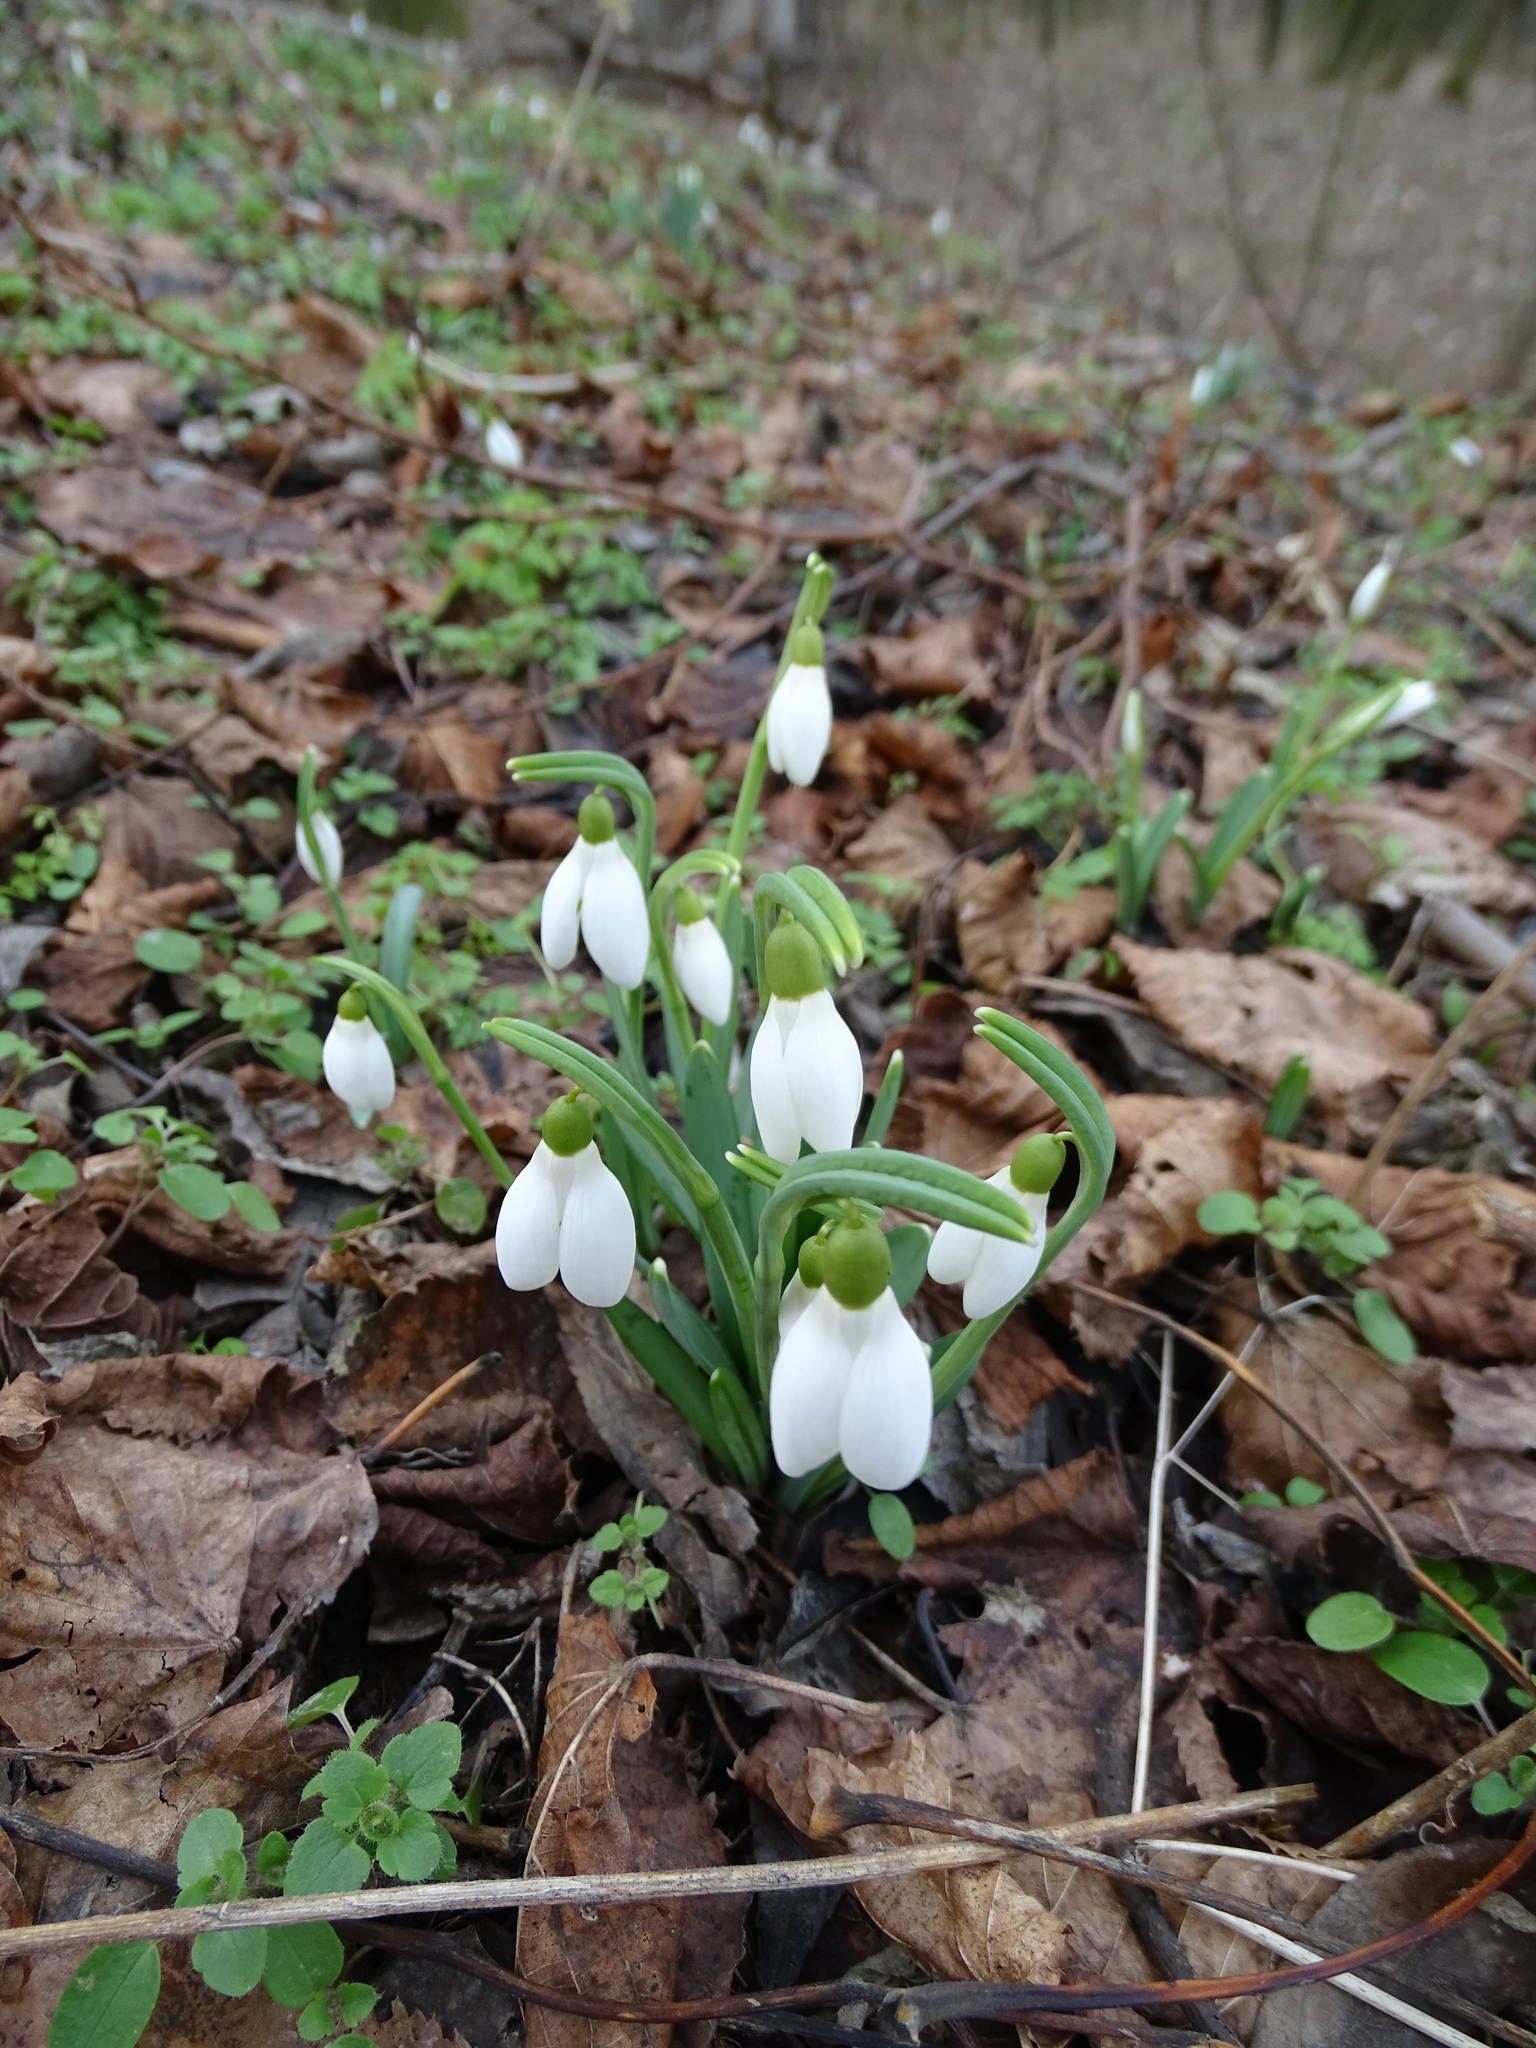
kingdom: Plantae
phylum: Tracheophyta
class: Liliopsida
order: Asparagales
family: Amaryllidaceae
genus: Galanthus
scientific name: Galanthus nivalis
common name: Snowdrop
